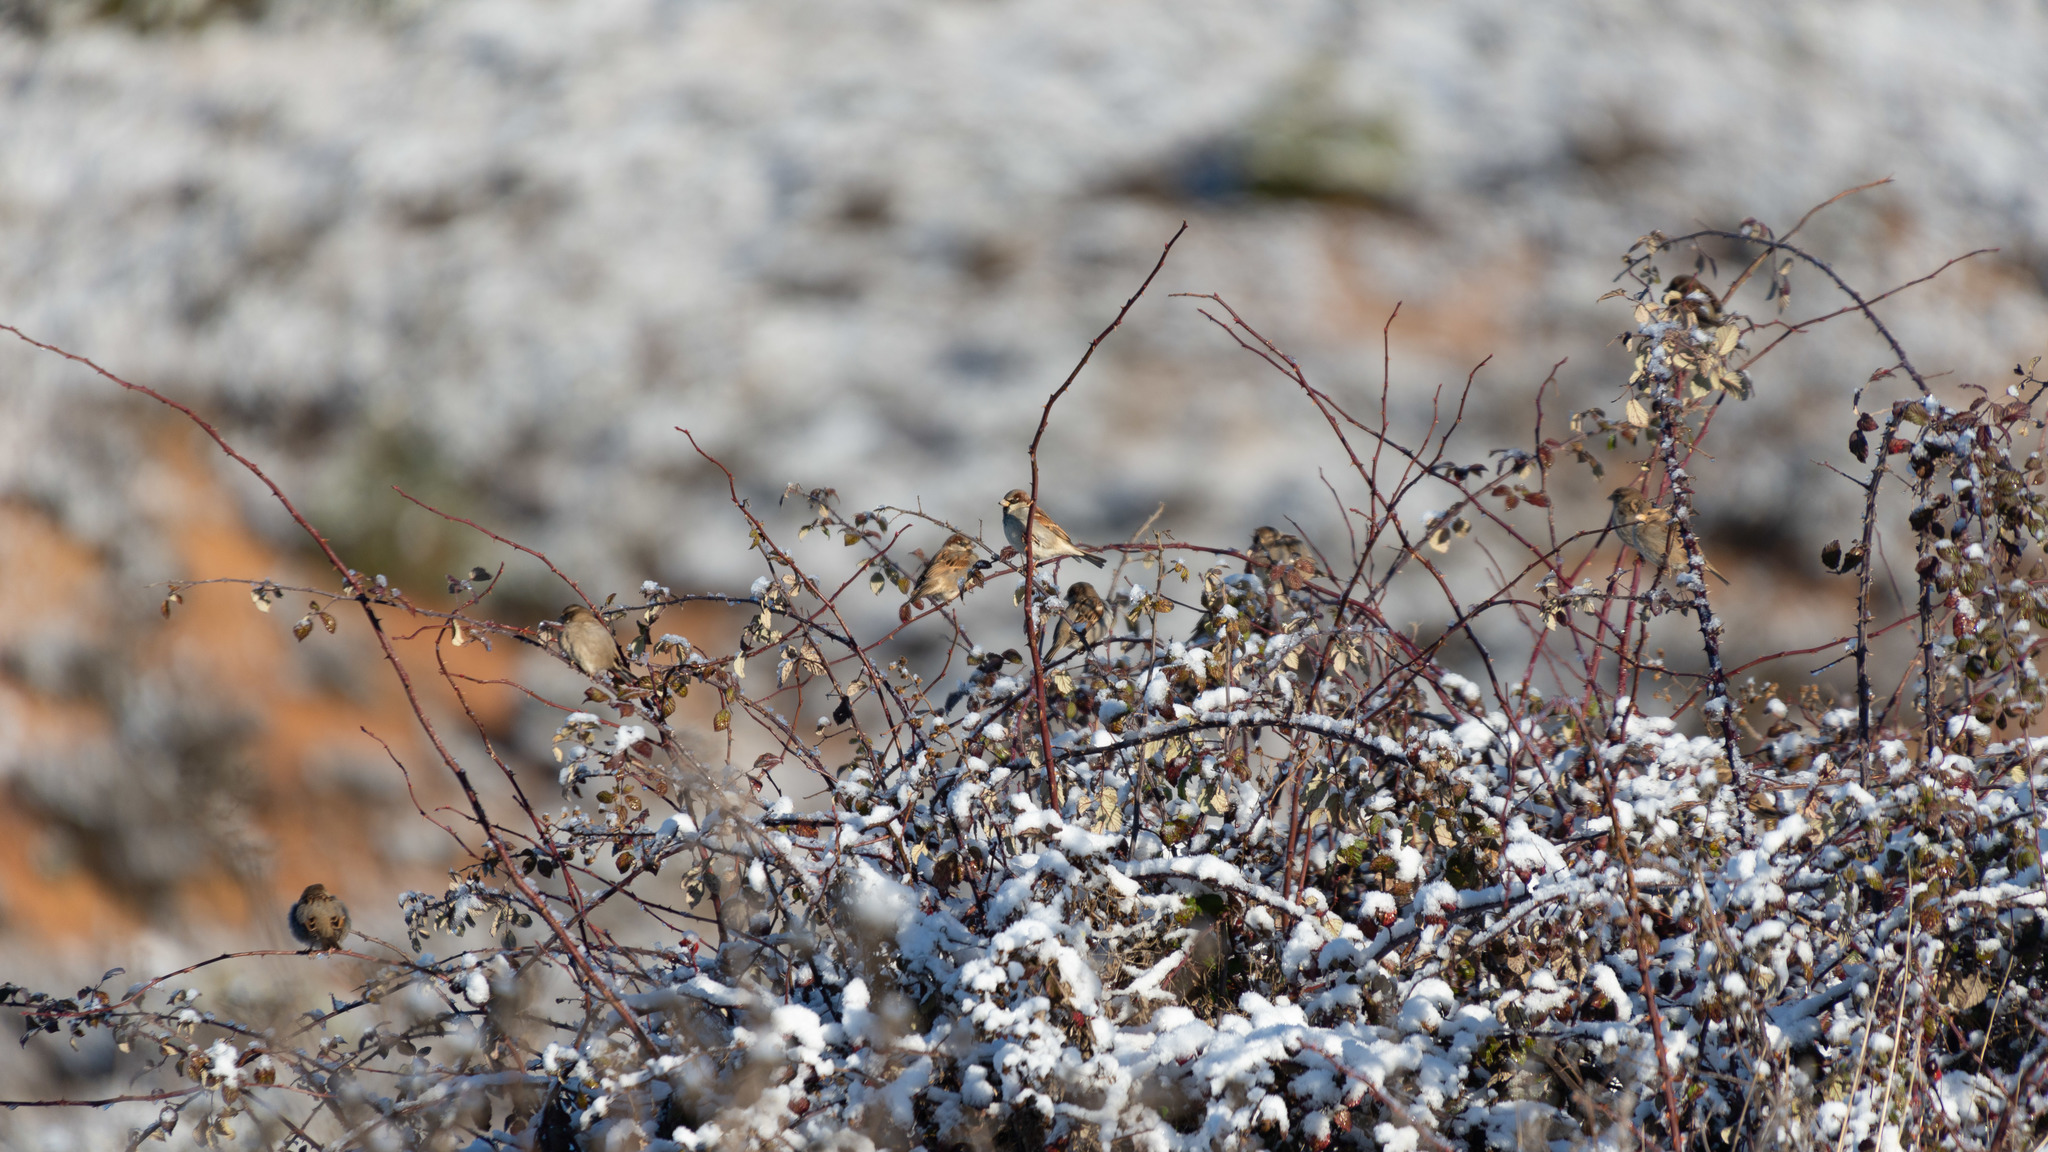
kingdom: Animalia
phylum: Chordata
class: Aves
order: Passeriformes
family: Passeridae
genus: Passer
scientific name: Passer domesticus
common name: House sparrow
